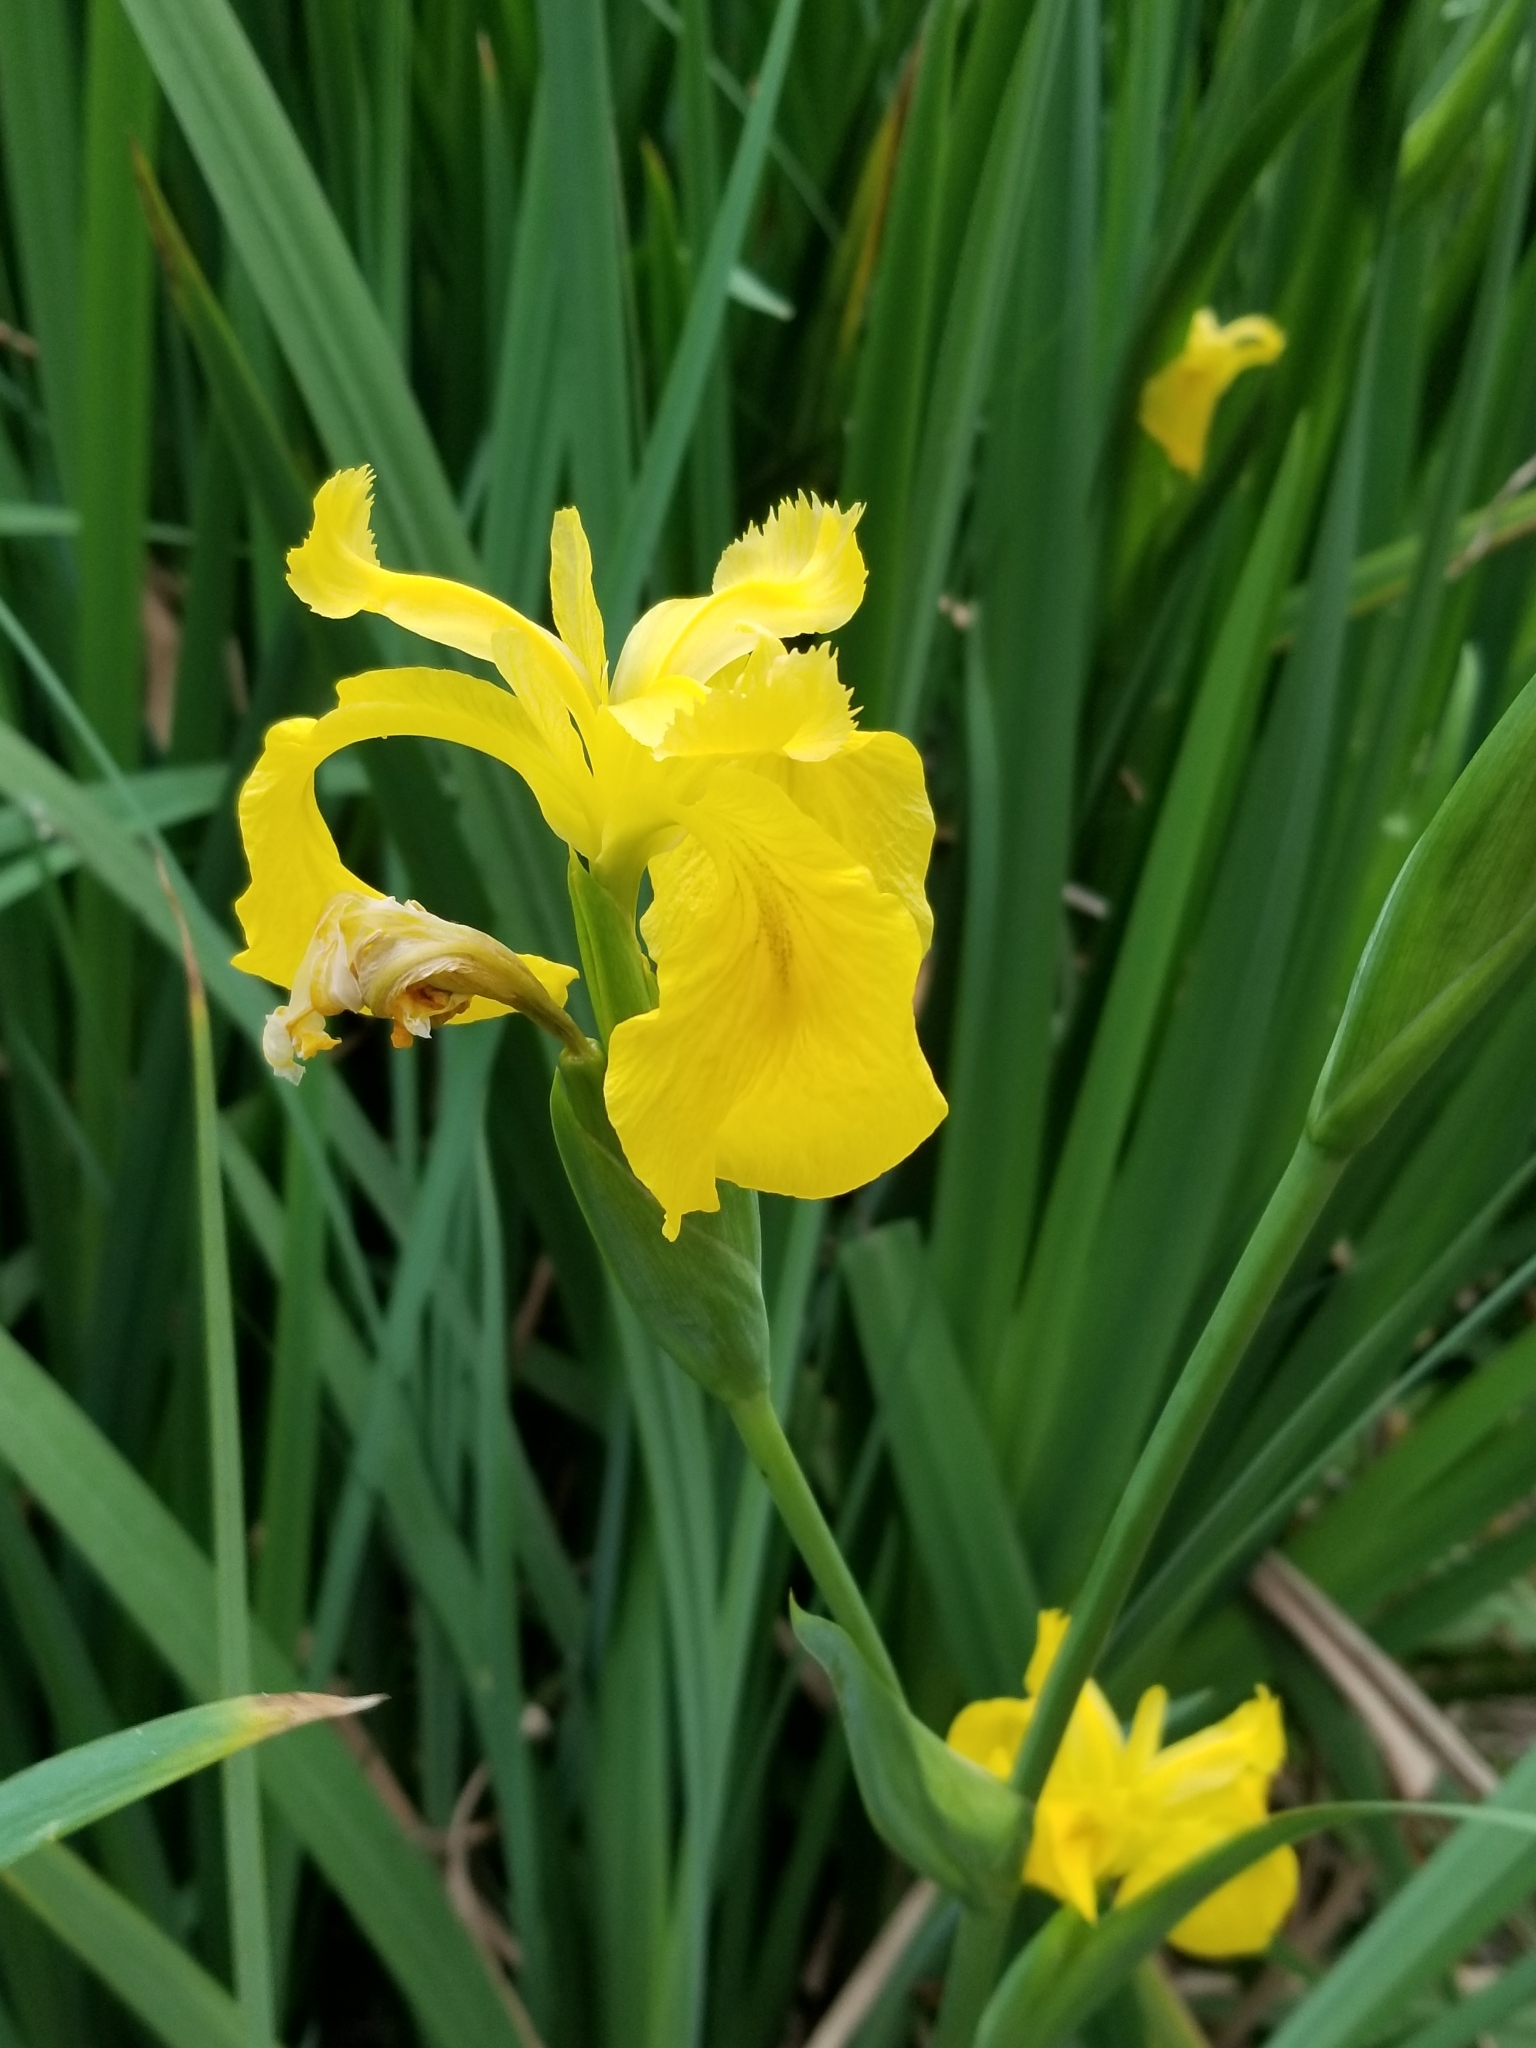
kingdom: Plantae
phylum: Tracheophyta
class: Liliopsida
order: Asparagales
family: Iridaceae
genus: Iris
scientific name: Iris pseudacorus
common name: Yellow flag
